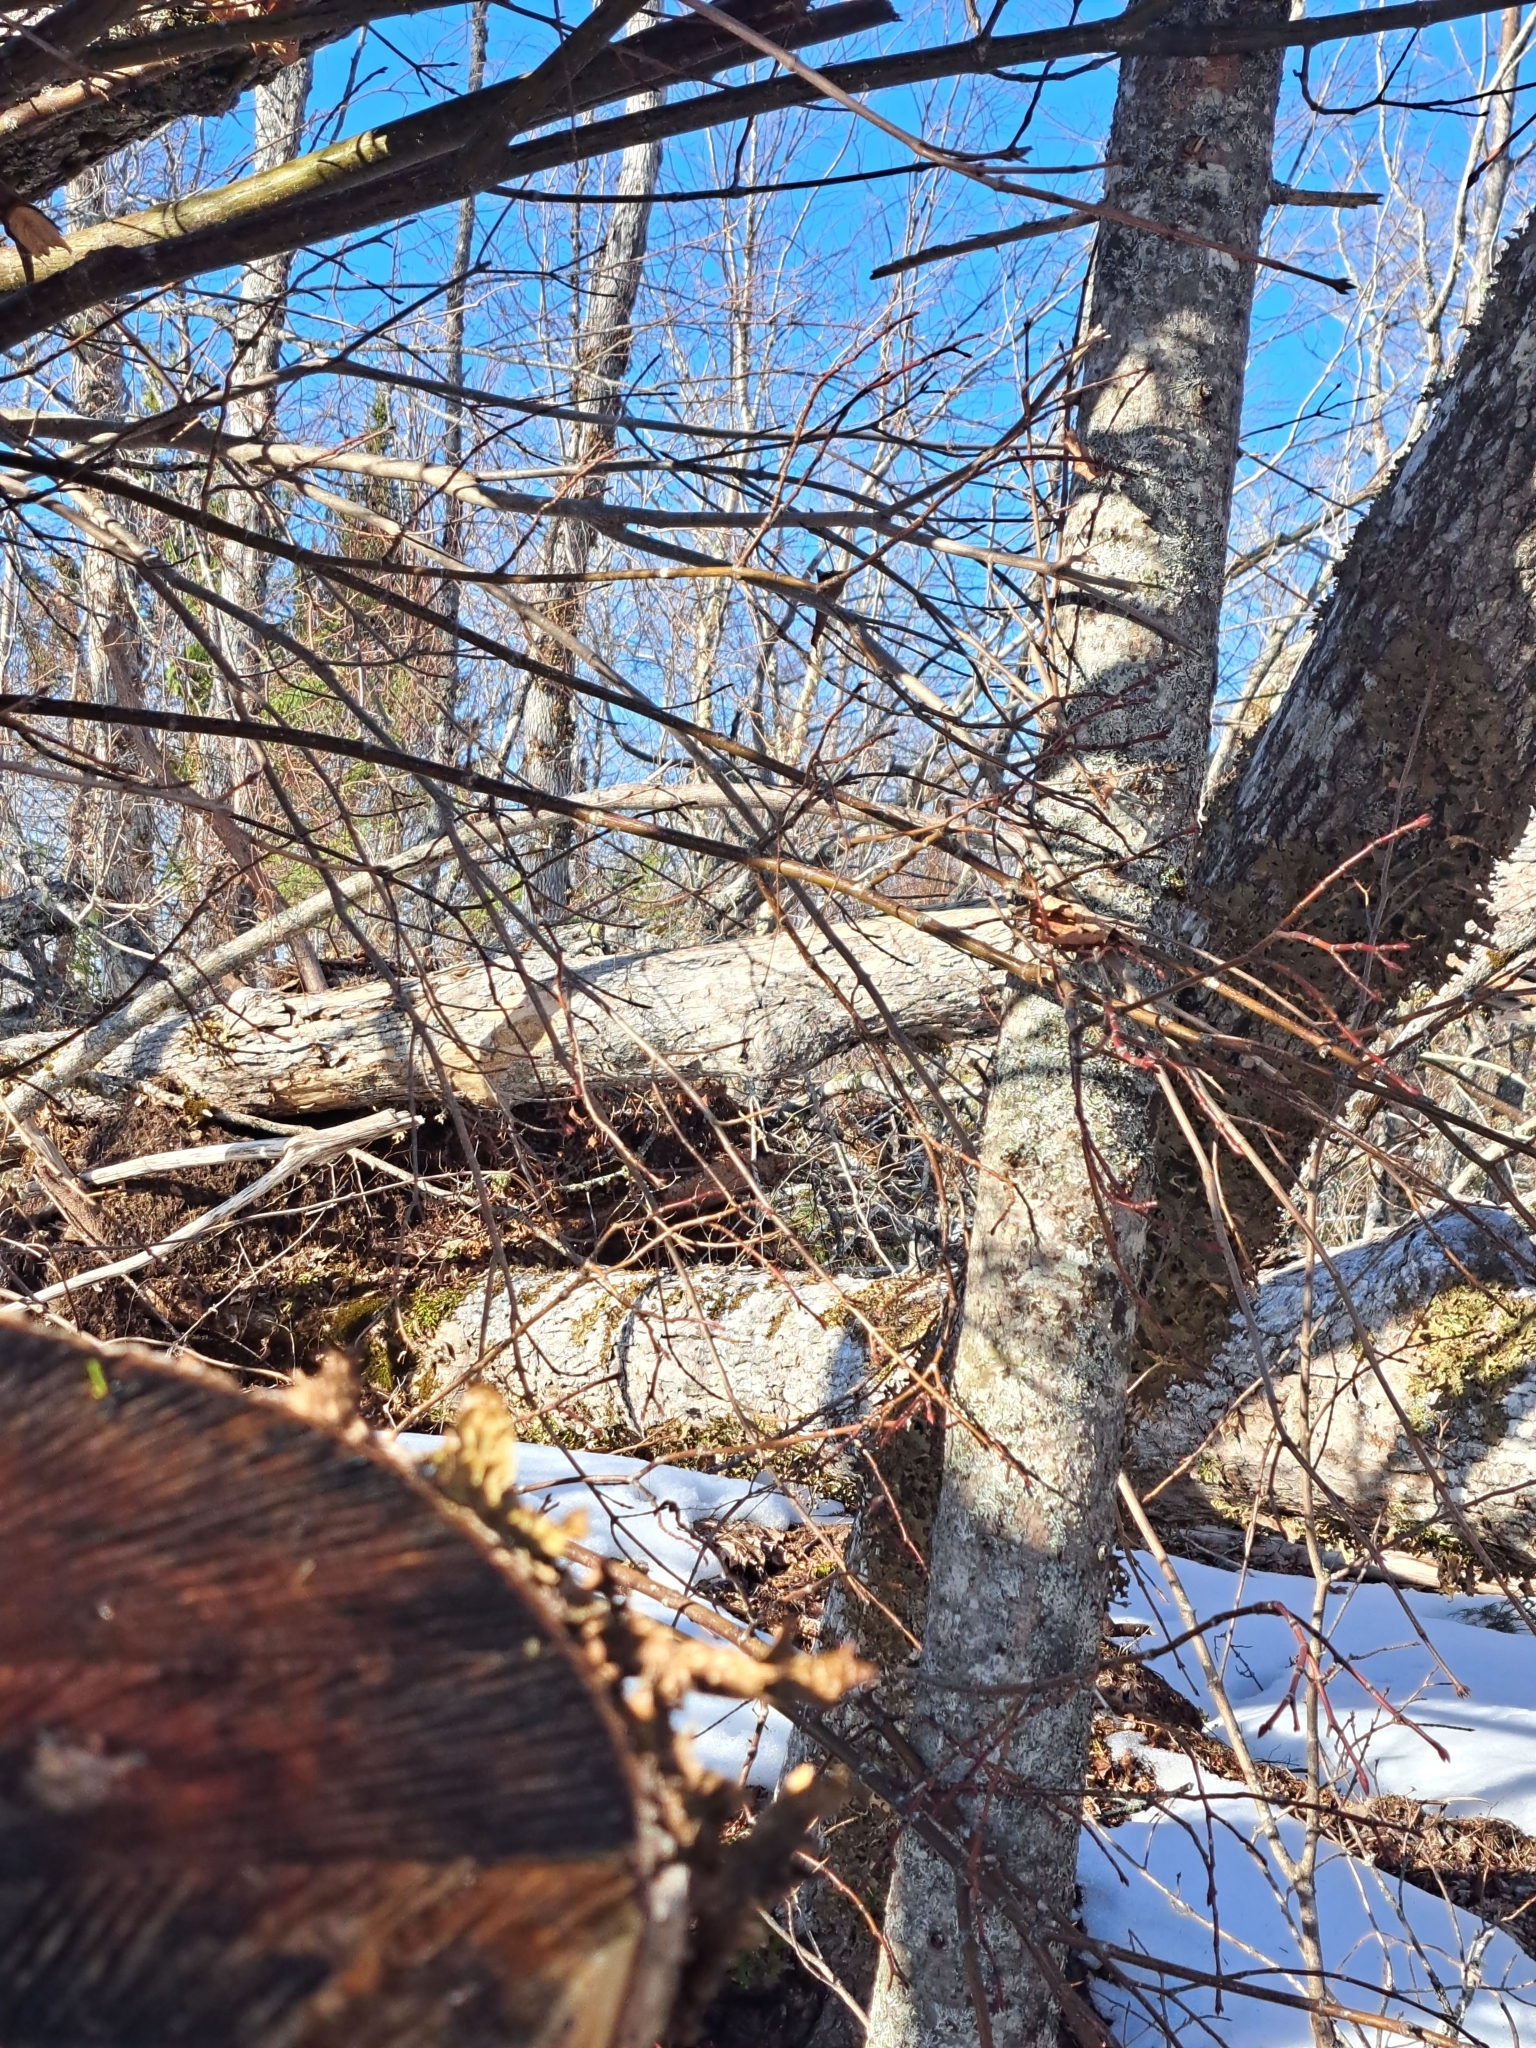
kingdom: Animalia
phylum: Chordata
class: Aves
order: Galliformes
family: Phasianidae
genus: Bonasa
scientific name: Bonasa umbellus
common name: Ruffed grouse
